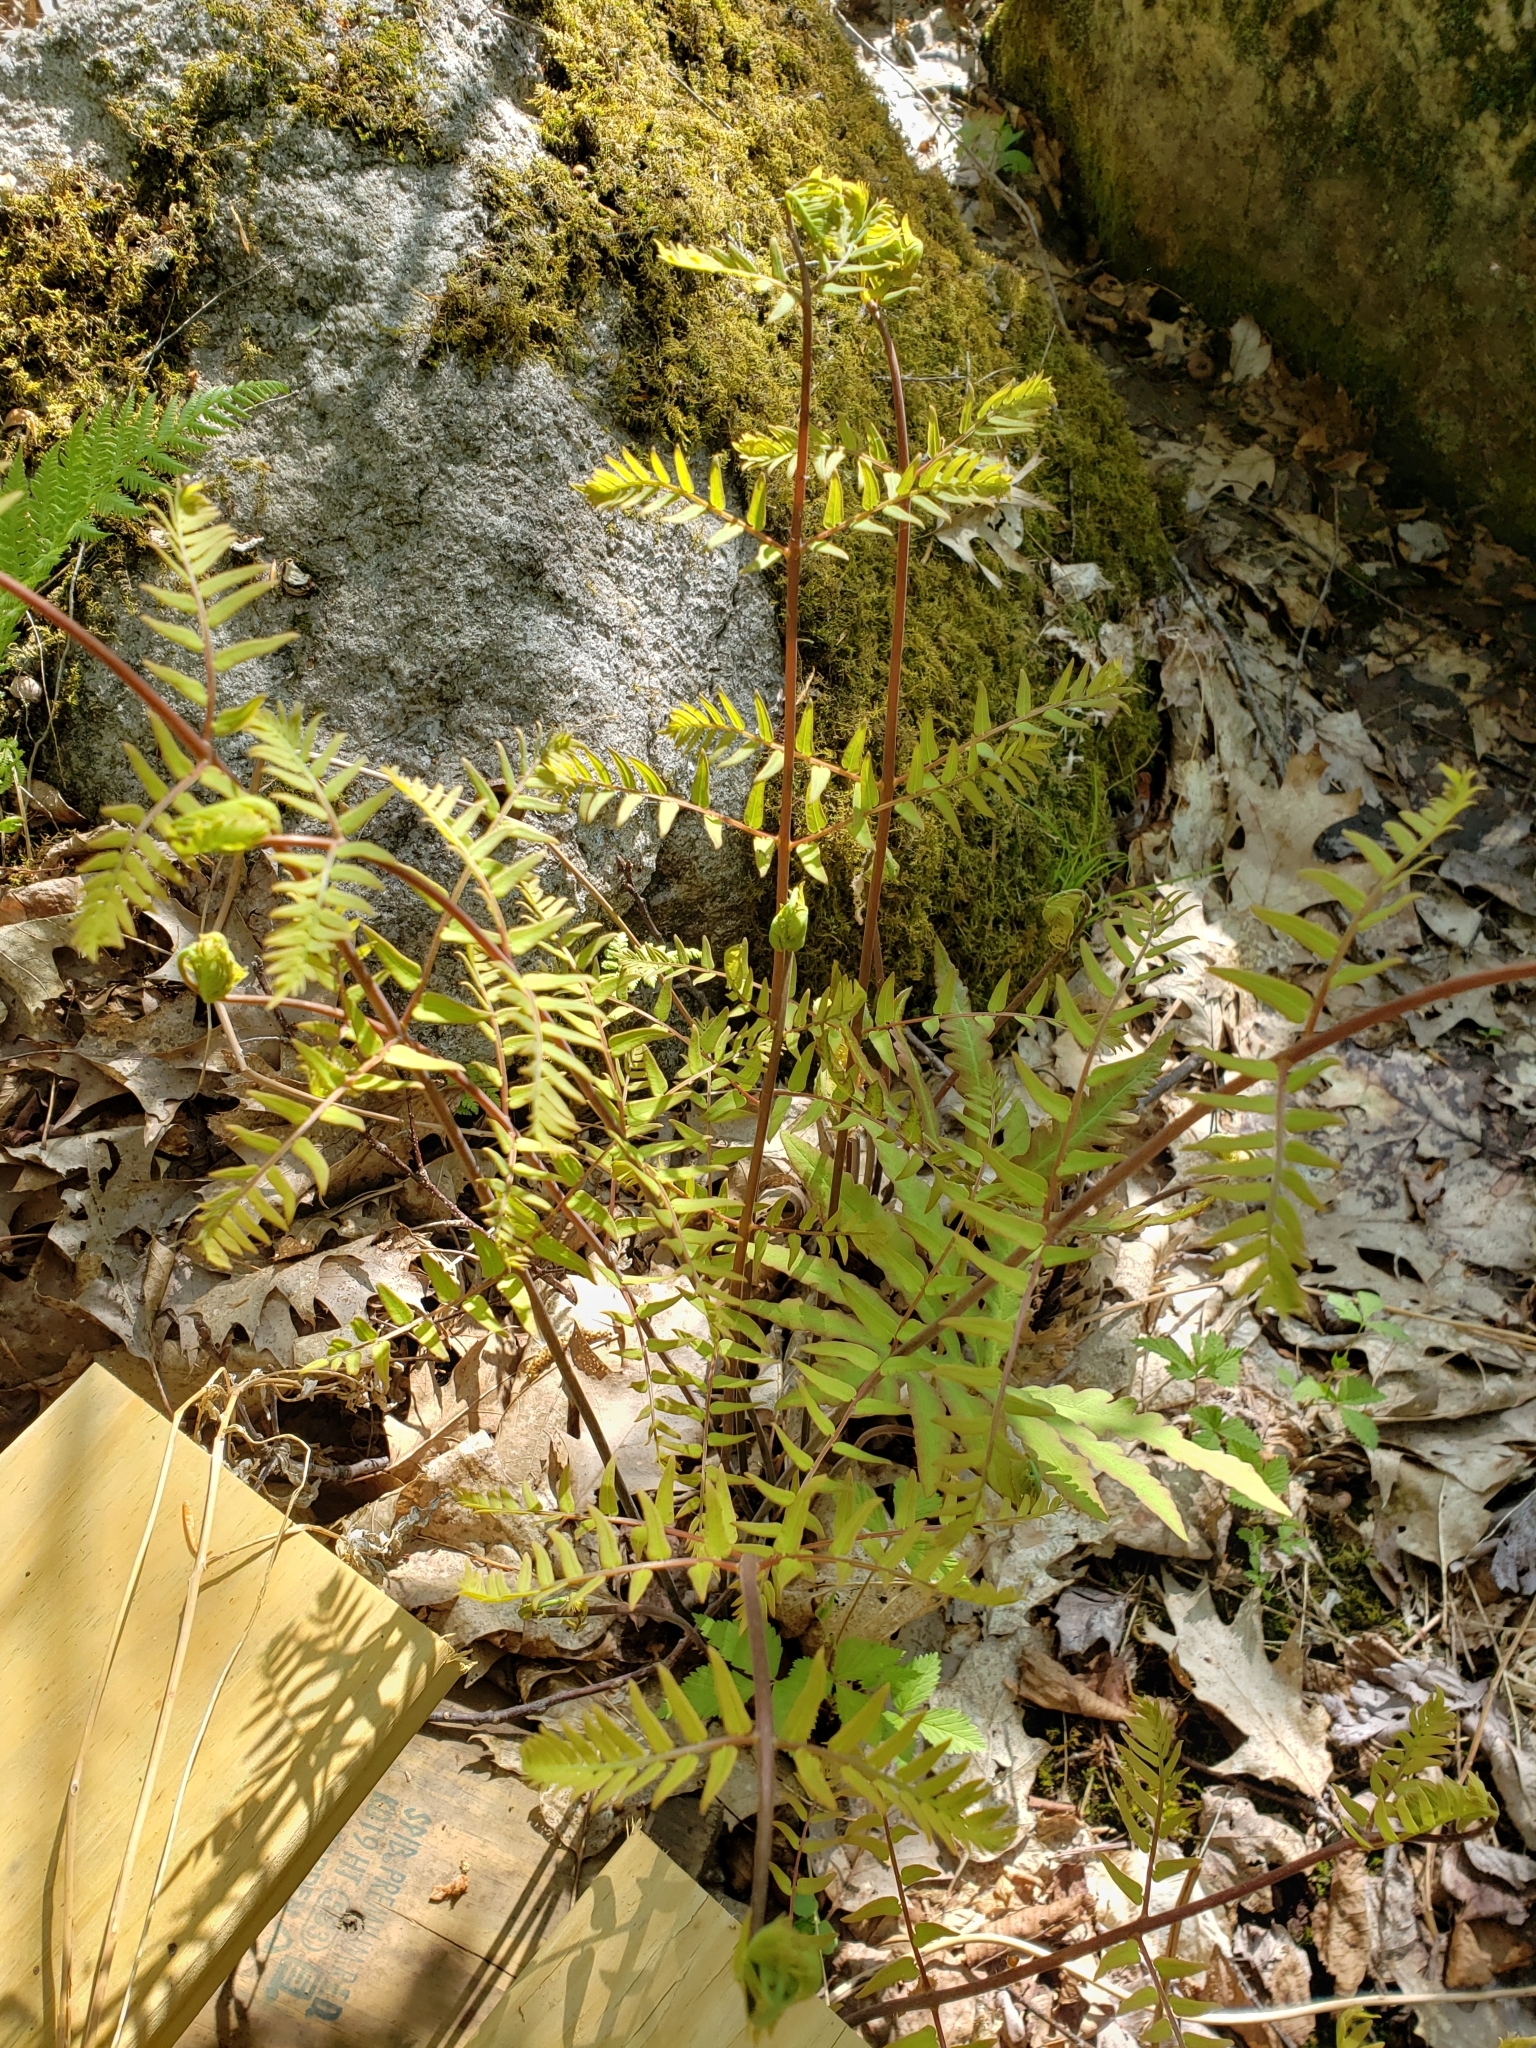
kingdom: Plantae
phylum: Tracheophyta
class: Polypodiopsida
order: Osmundales
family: Osmundaceae
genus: Osmunda
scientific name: Osmunda spectabilis
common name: American royal fern
